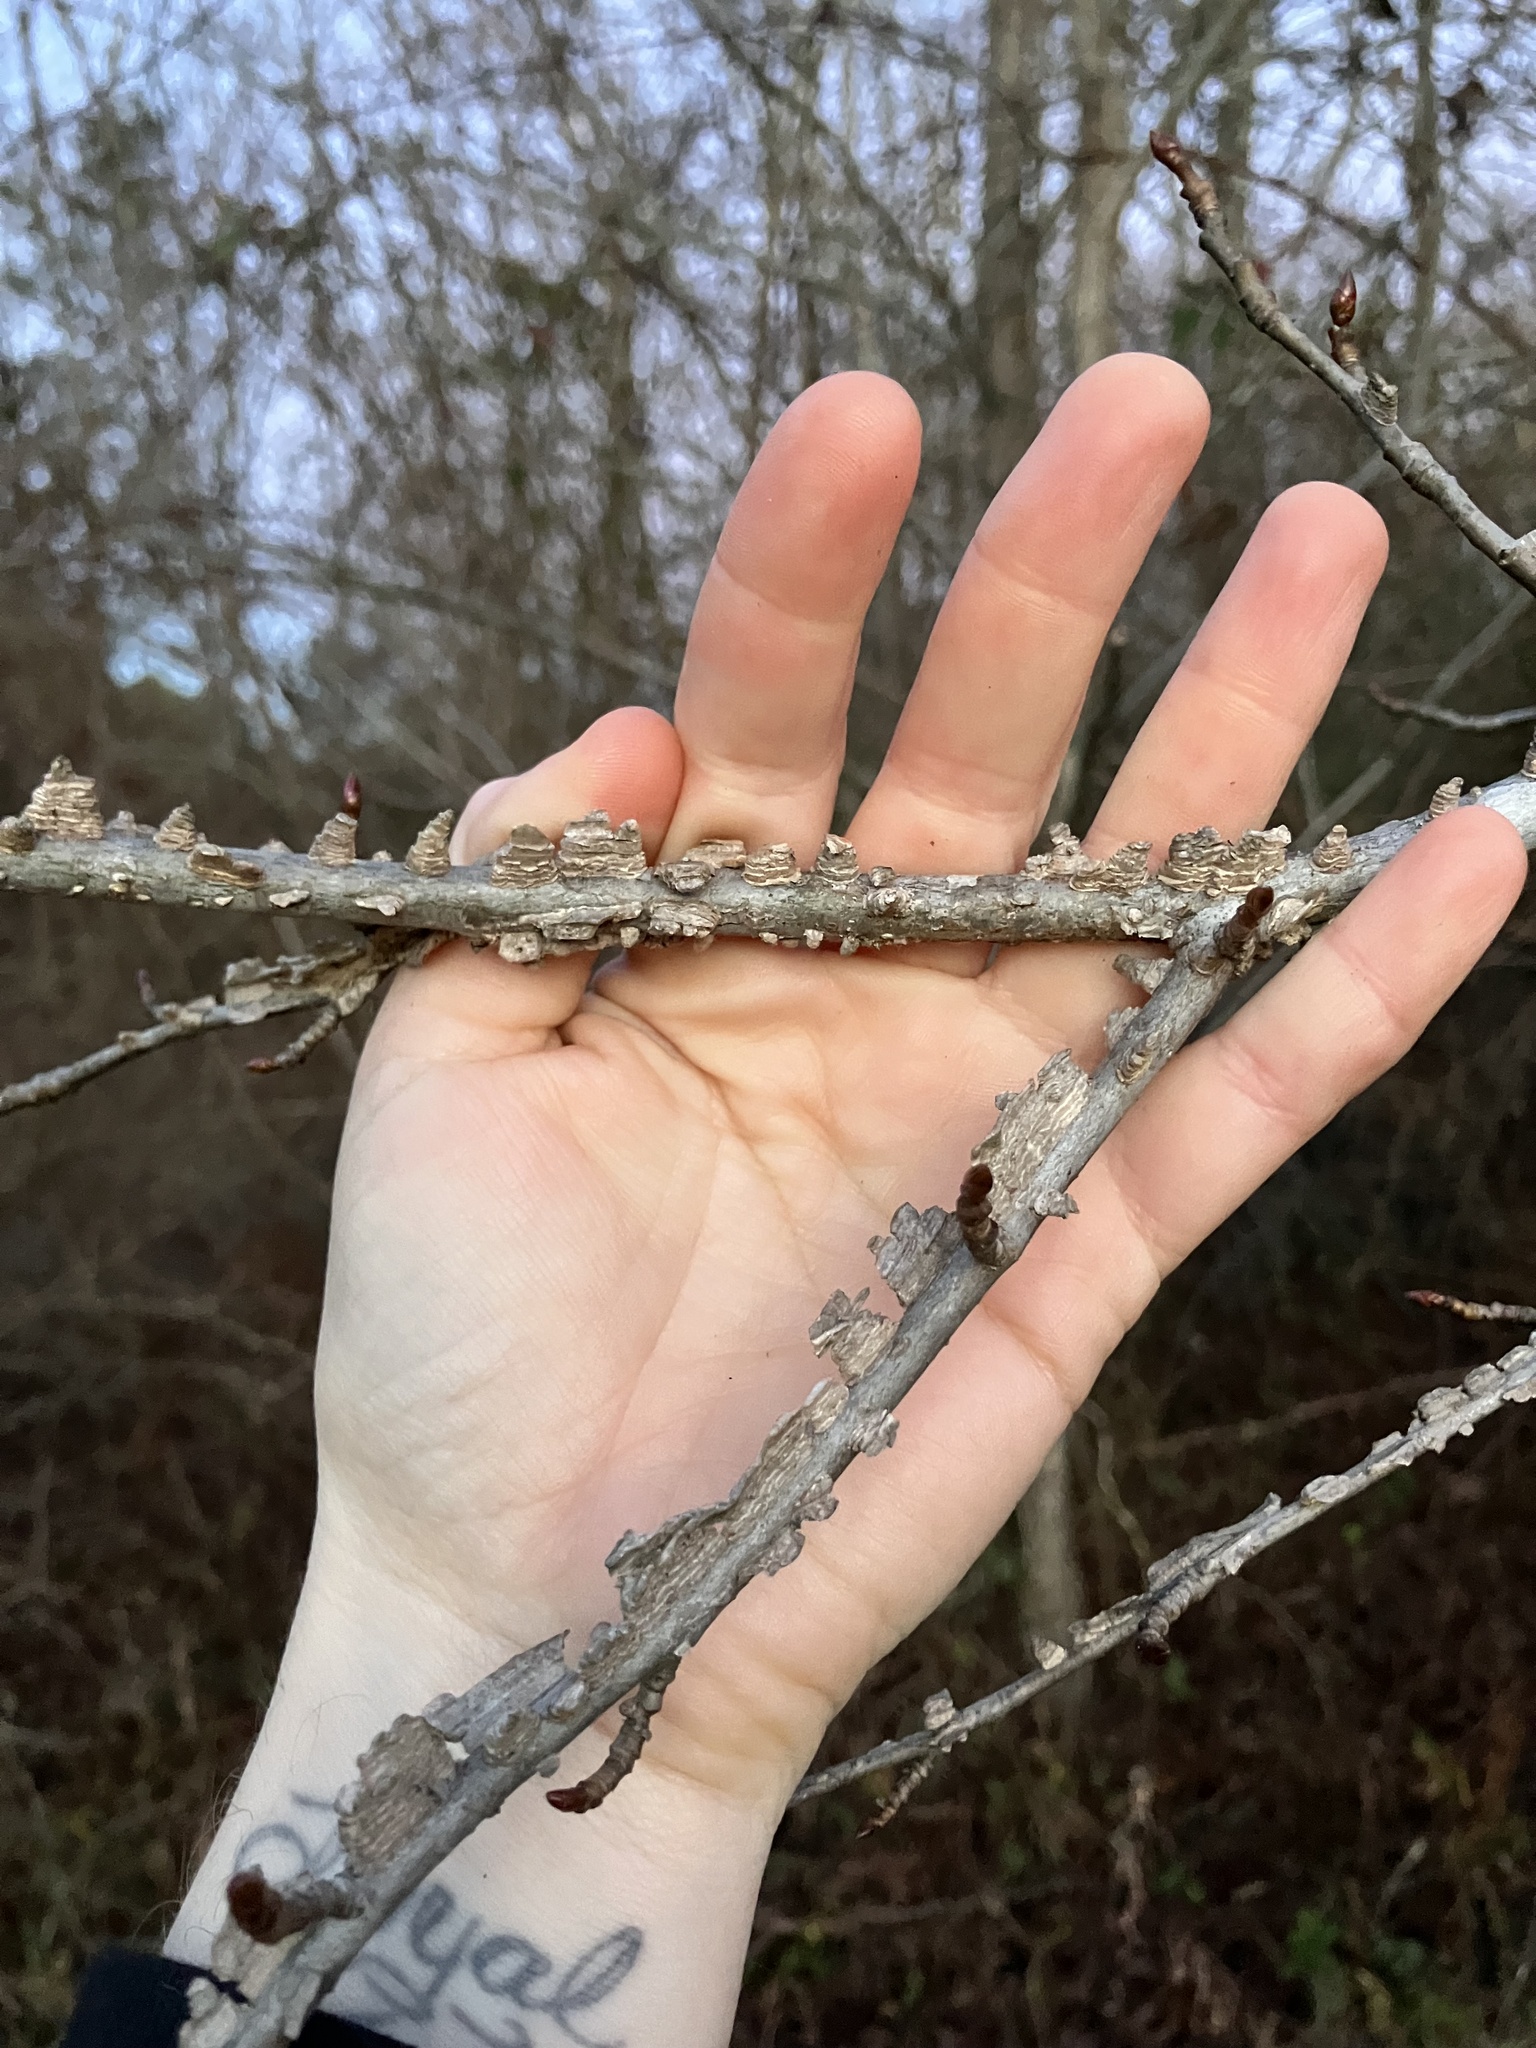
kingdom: Plantae
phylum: Tracheophyta
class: Magnoliopsida
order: Saxifragales
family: Altingiaceae
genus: Liquidambar
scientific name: Liquidambar styraciflua
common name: Sweet gum
